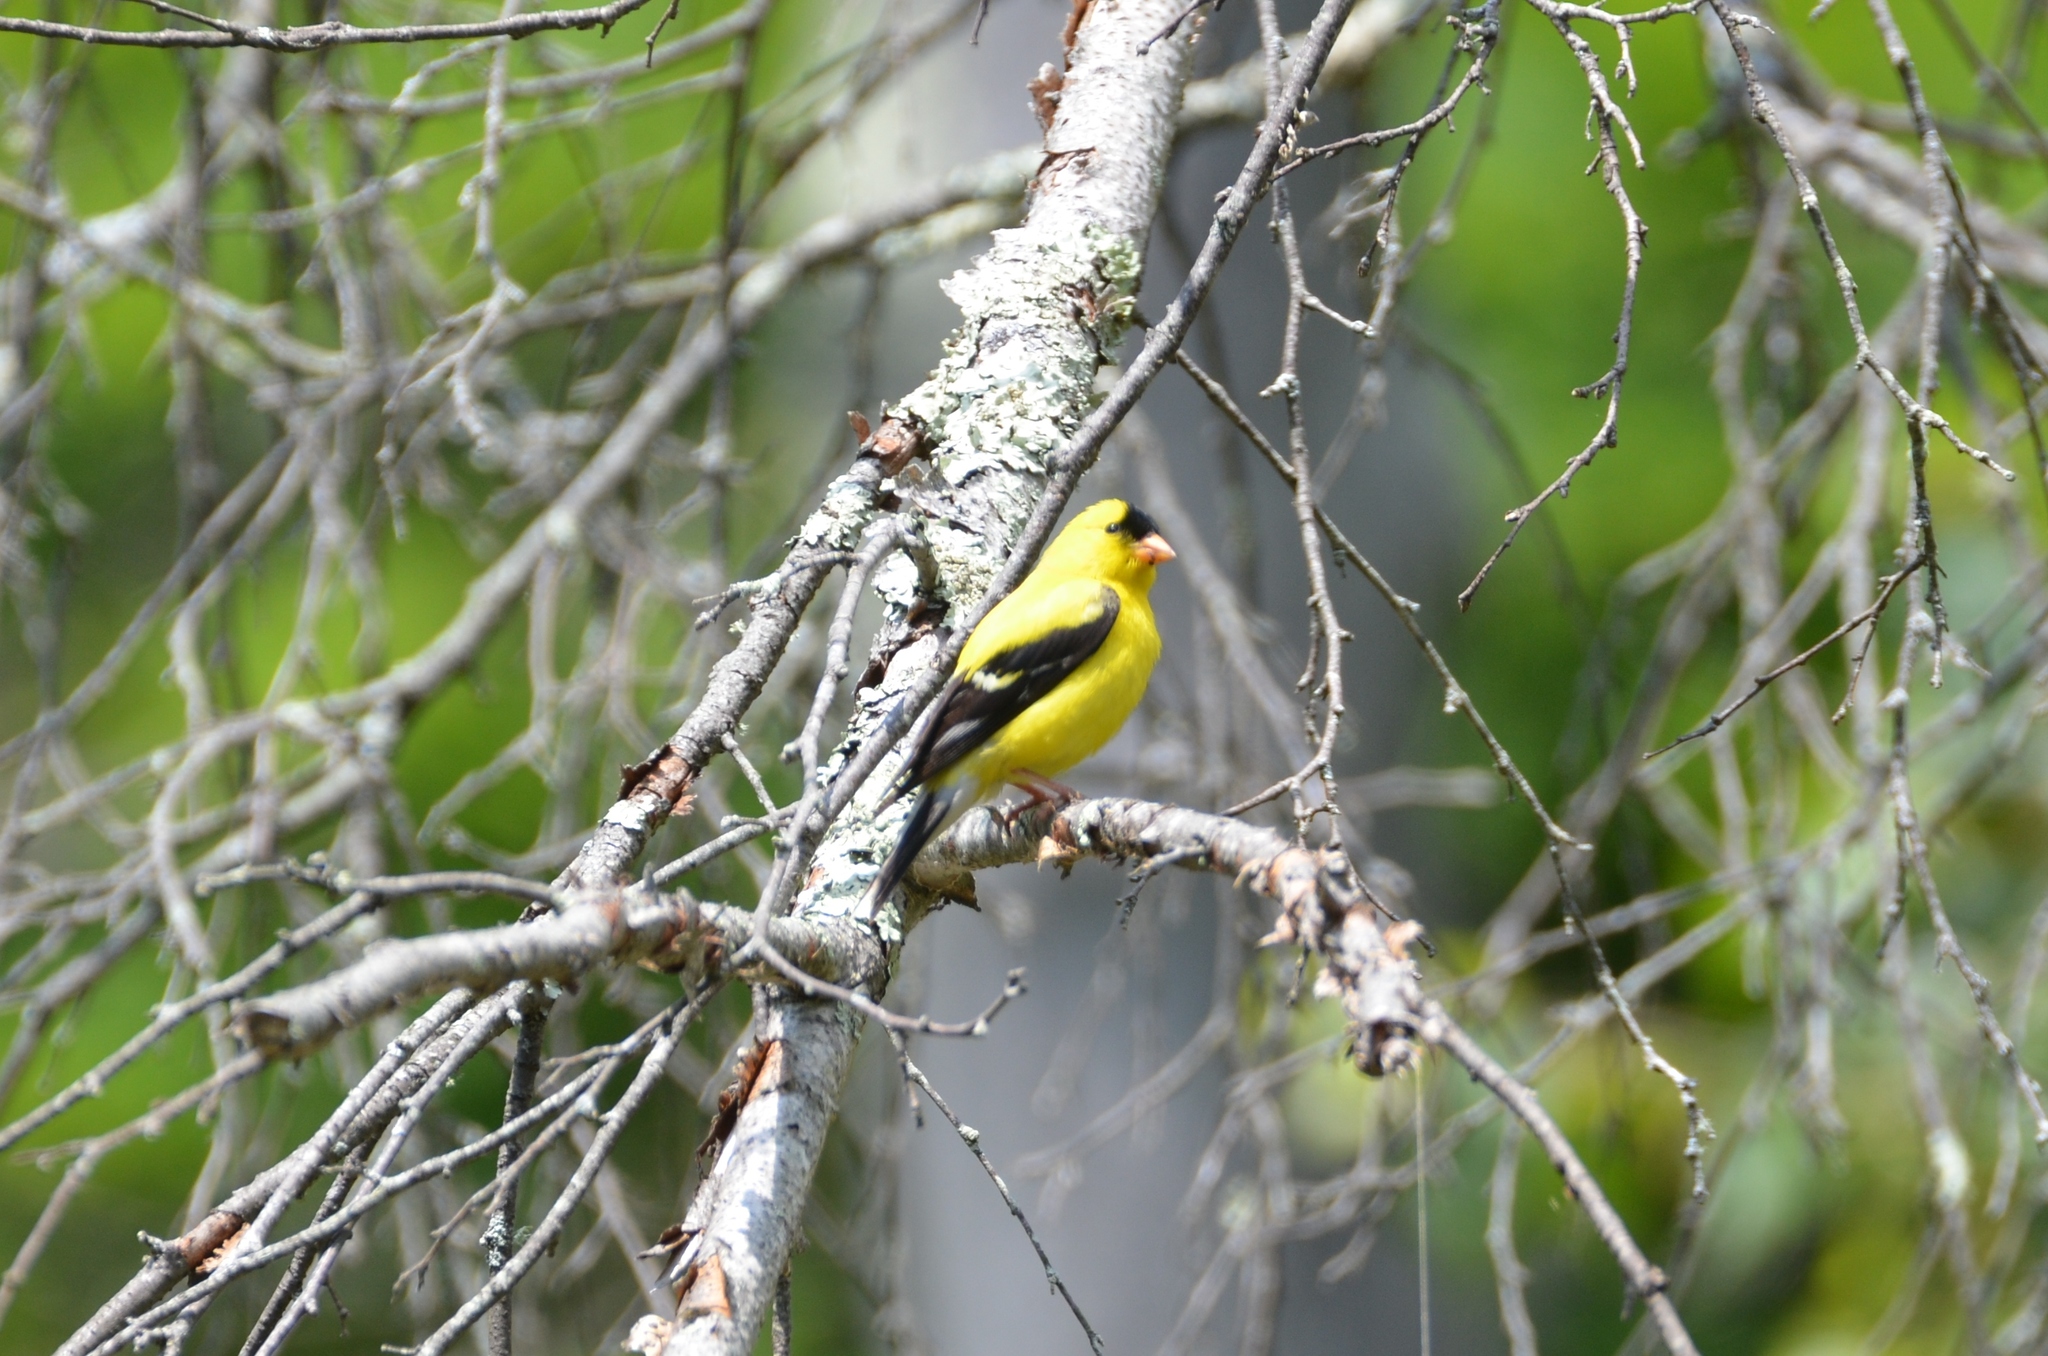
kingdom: Animalia
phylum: Chordata
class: Aves
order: Passeriformes
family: Fringillidae
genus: Spinus
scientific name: Spinus tristis
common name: American goldfinch
